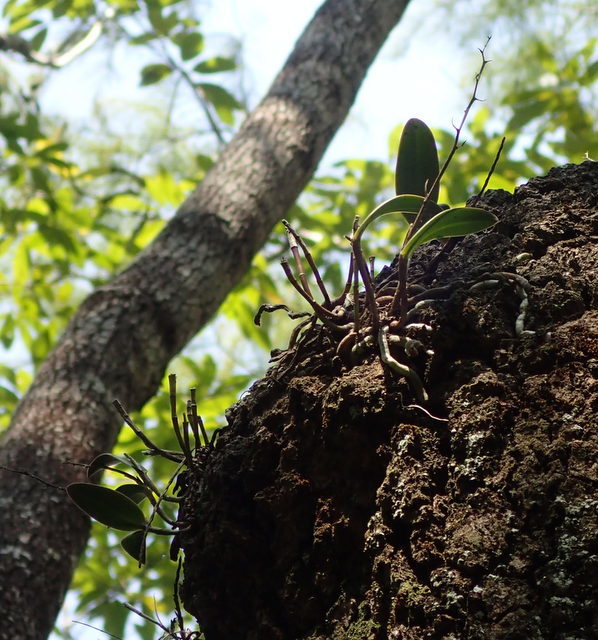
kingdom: Plantae
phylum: Tracheophyta
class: Liliopsida
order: Asparagales
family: Orchidaceae
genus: Epidendrum
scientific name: Epidendrum conopseum
